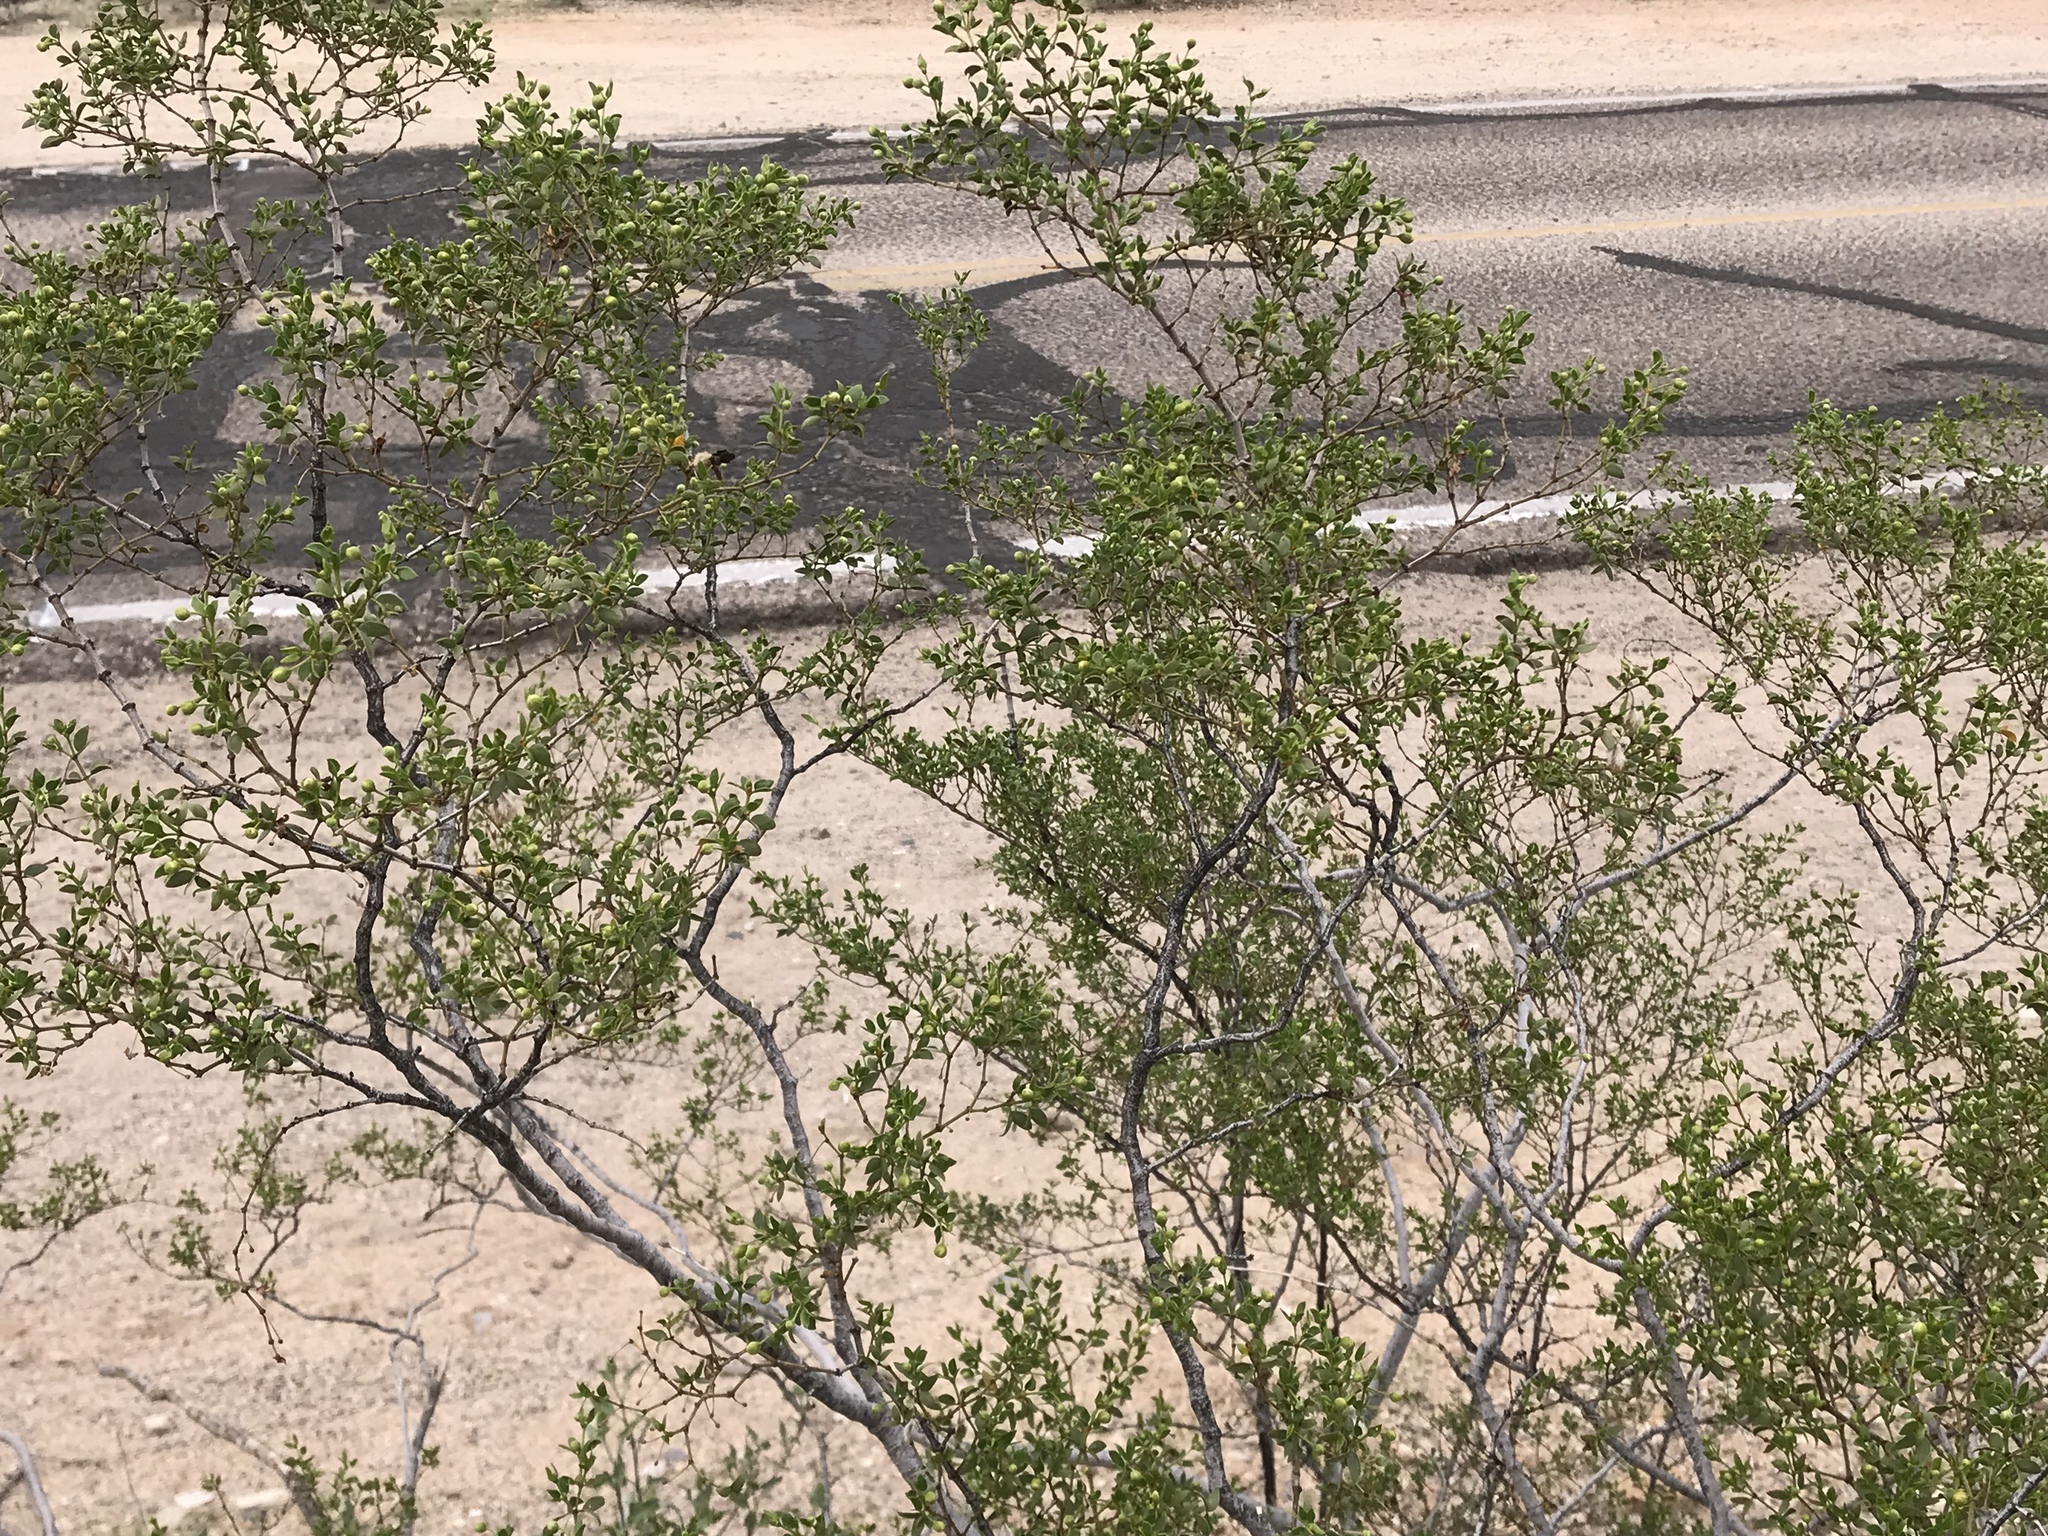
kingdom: Plantae
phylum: Tracheophyta
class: Magnoliopsida
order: Zygophyllales
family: Zygophyllaceae
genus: Larrea
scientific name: Larrea tridentata
